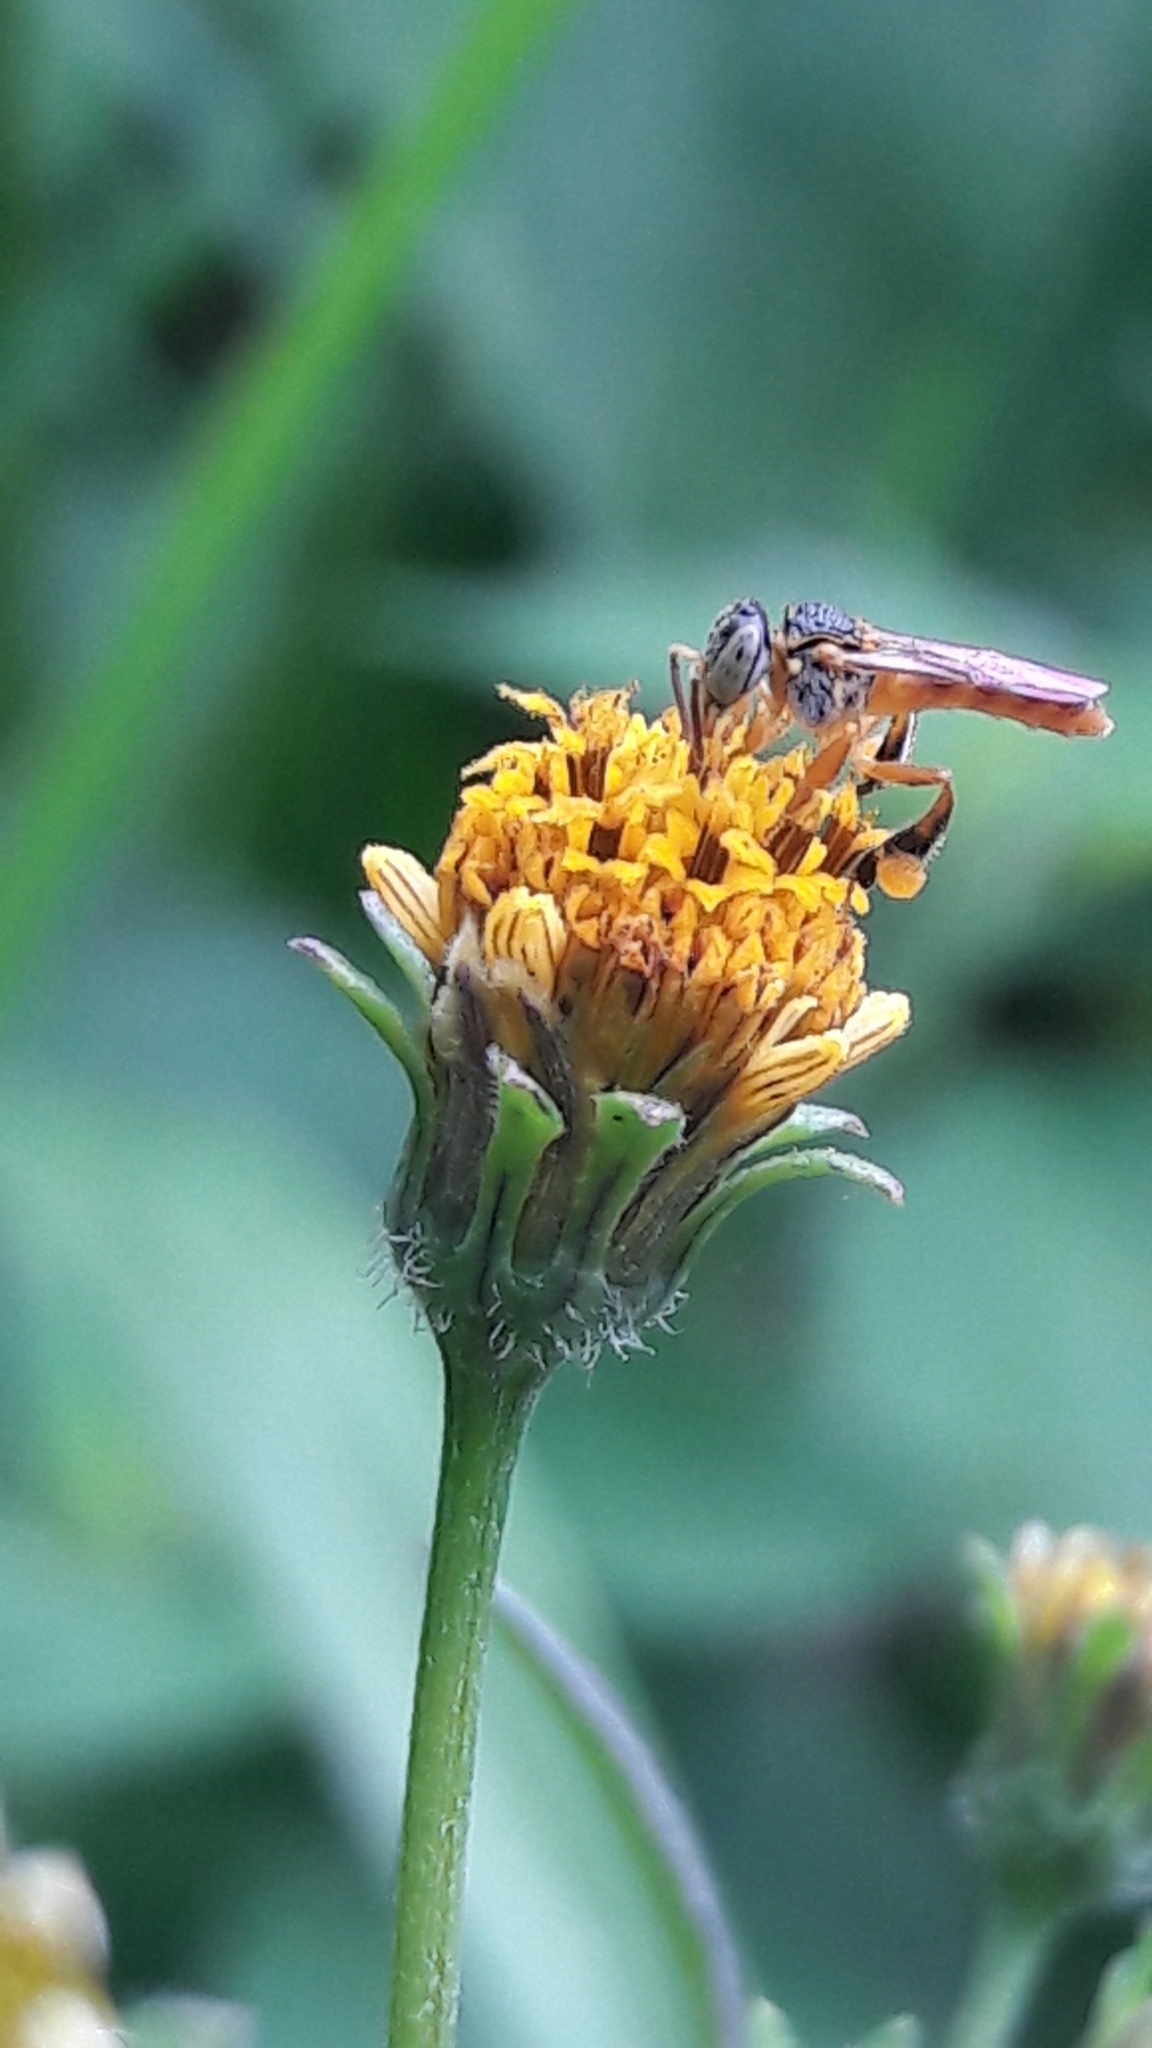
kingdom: Animalia
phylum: Arthropoda
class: Insecta
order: Hymenoptera
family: Apidae
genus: Tetragonisca
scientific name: Tetragonisca angustula
